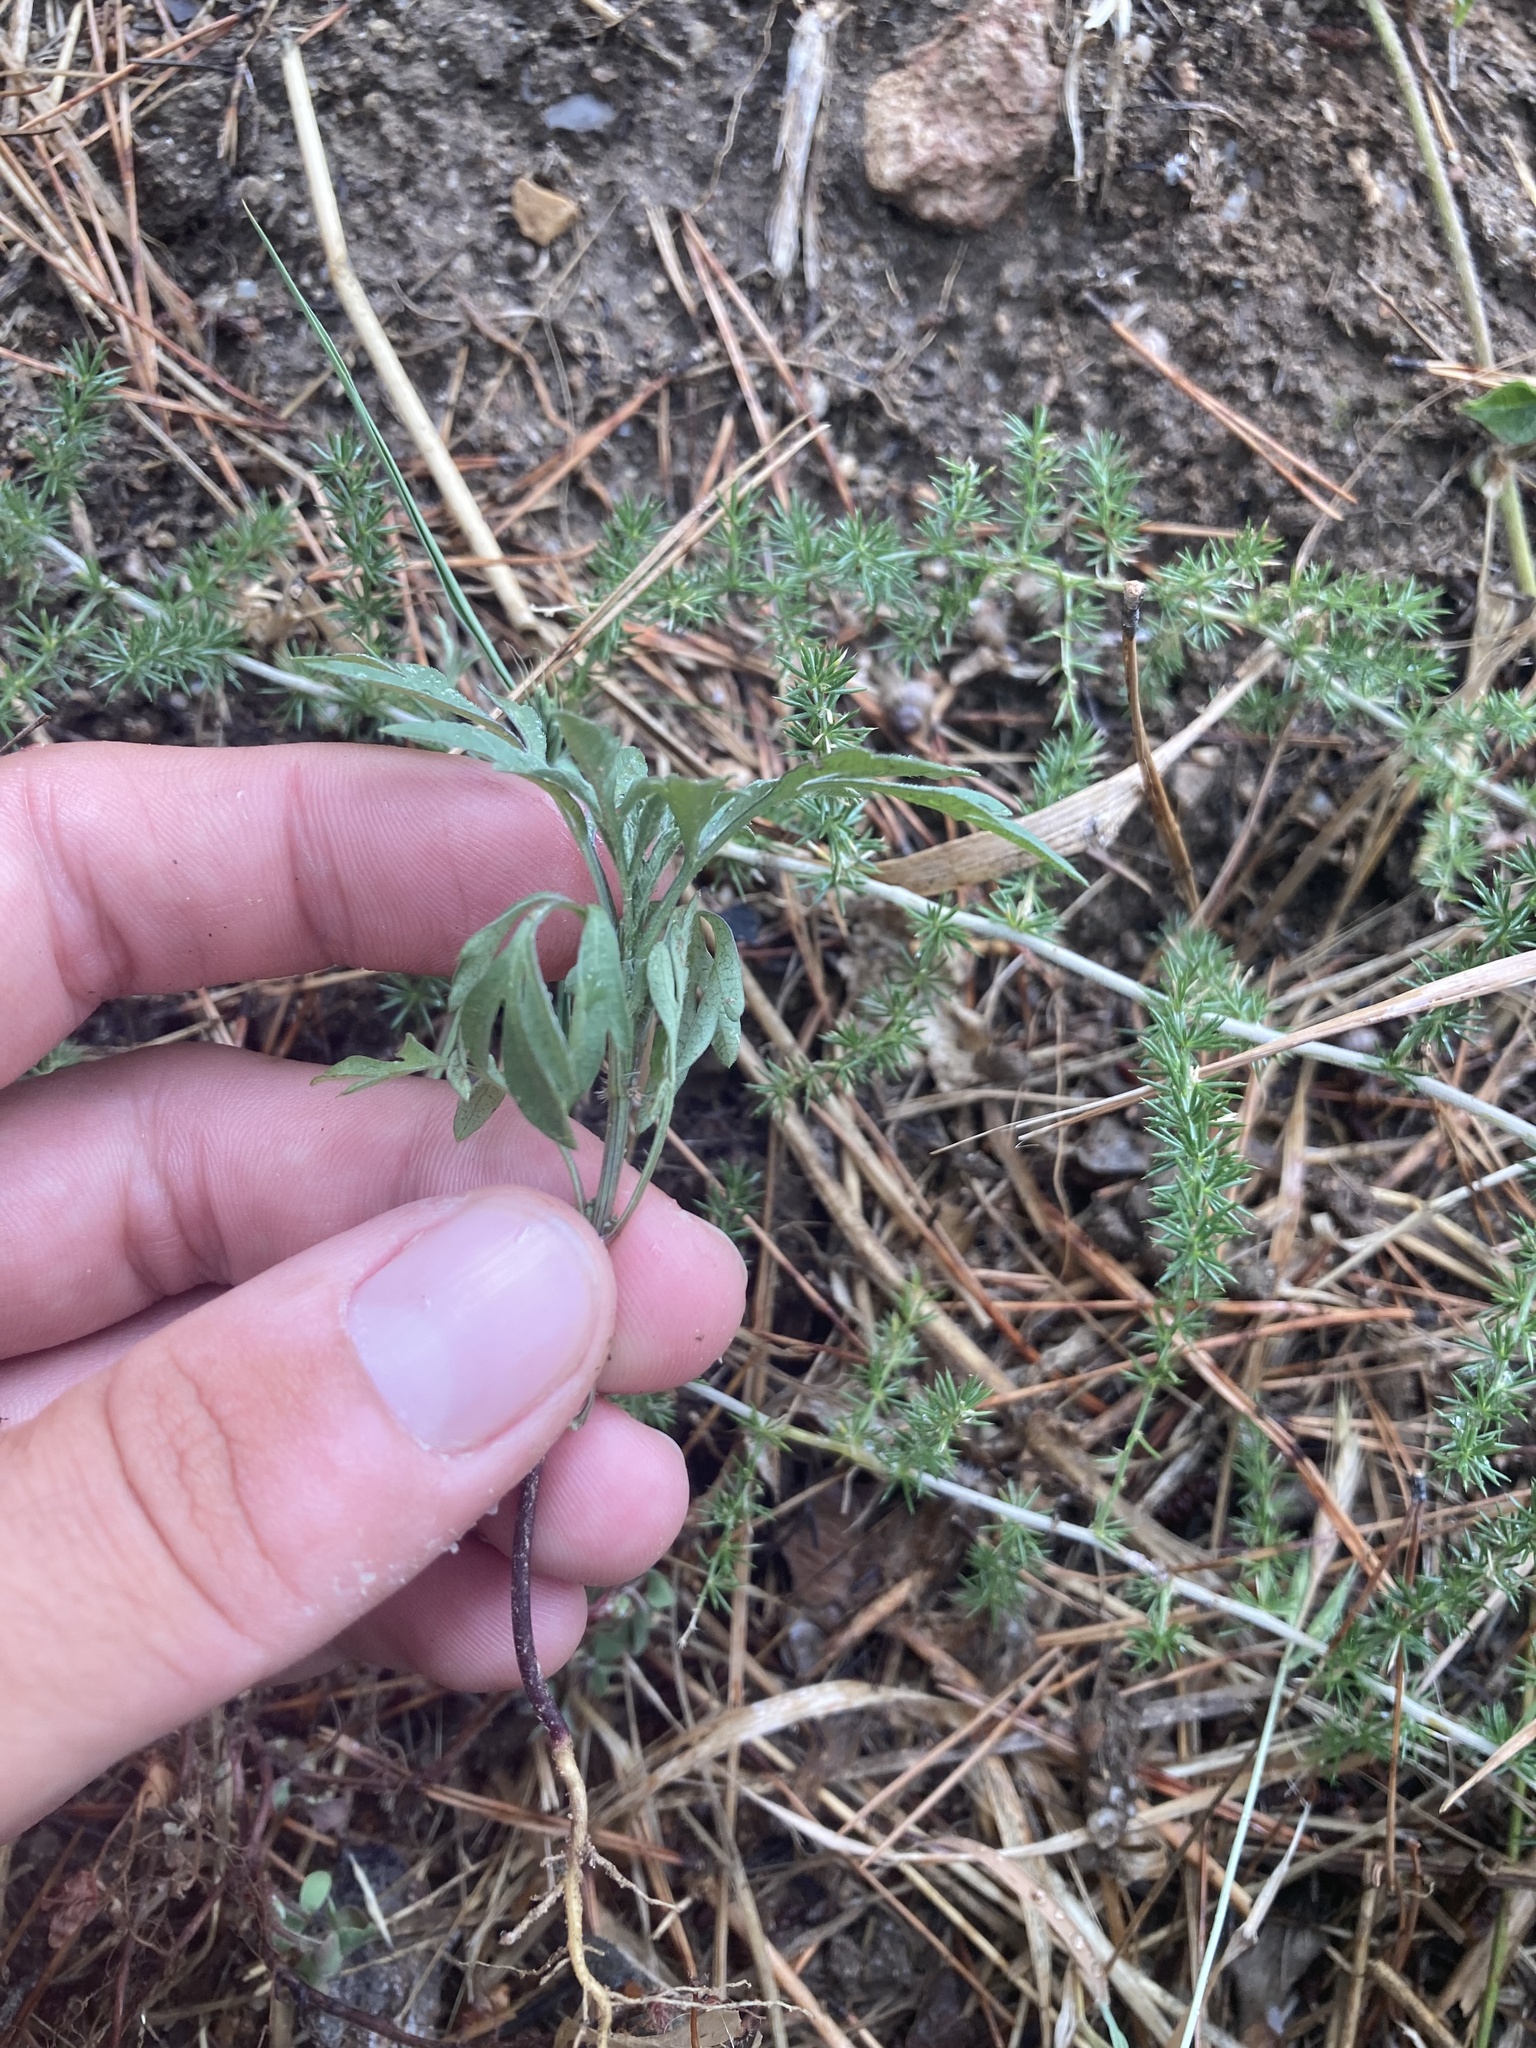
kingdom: Plantae
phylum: Tracheophyta
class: Magnoliopsida
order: Asterales
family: Asteraceae
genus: Bidens
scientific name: Bidens subalternans
